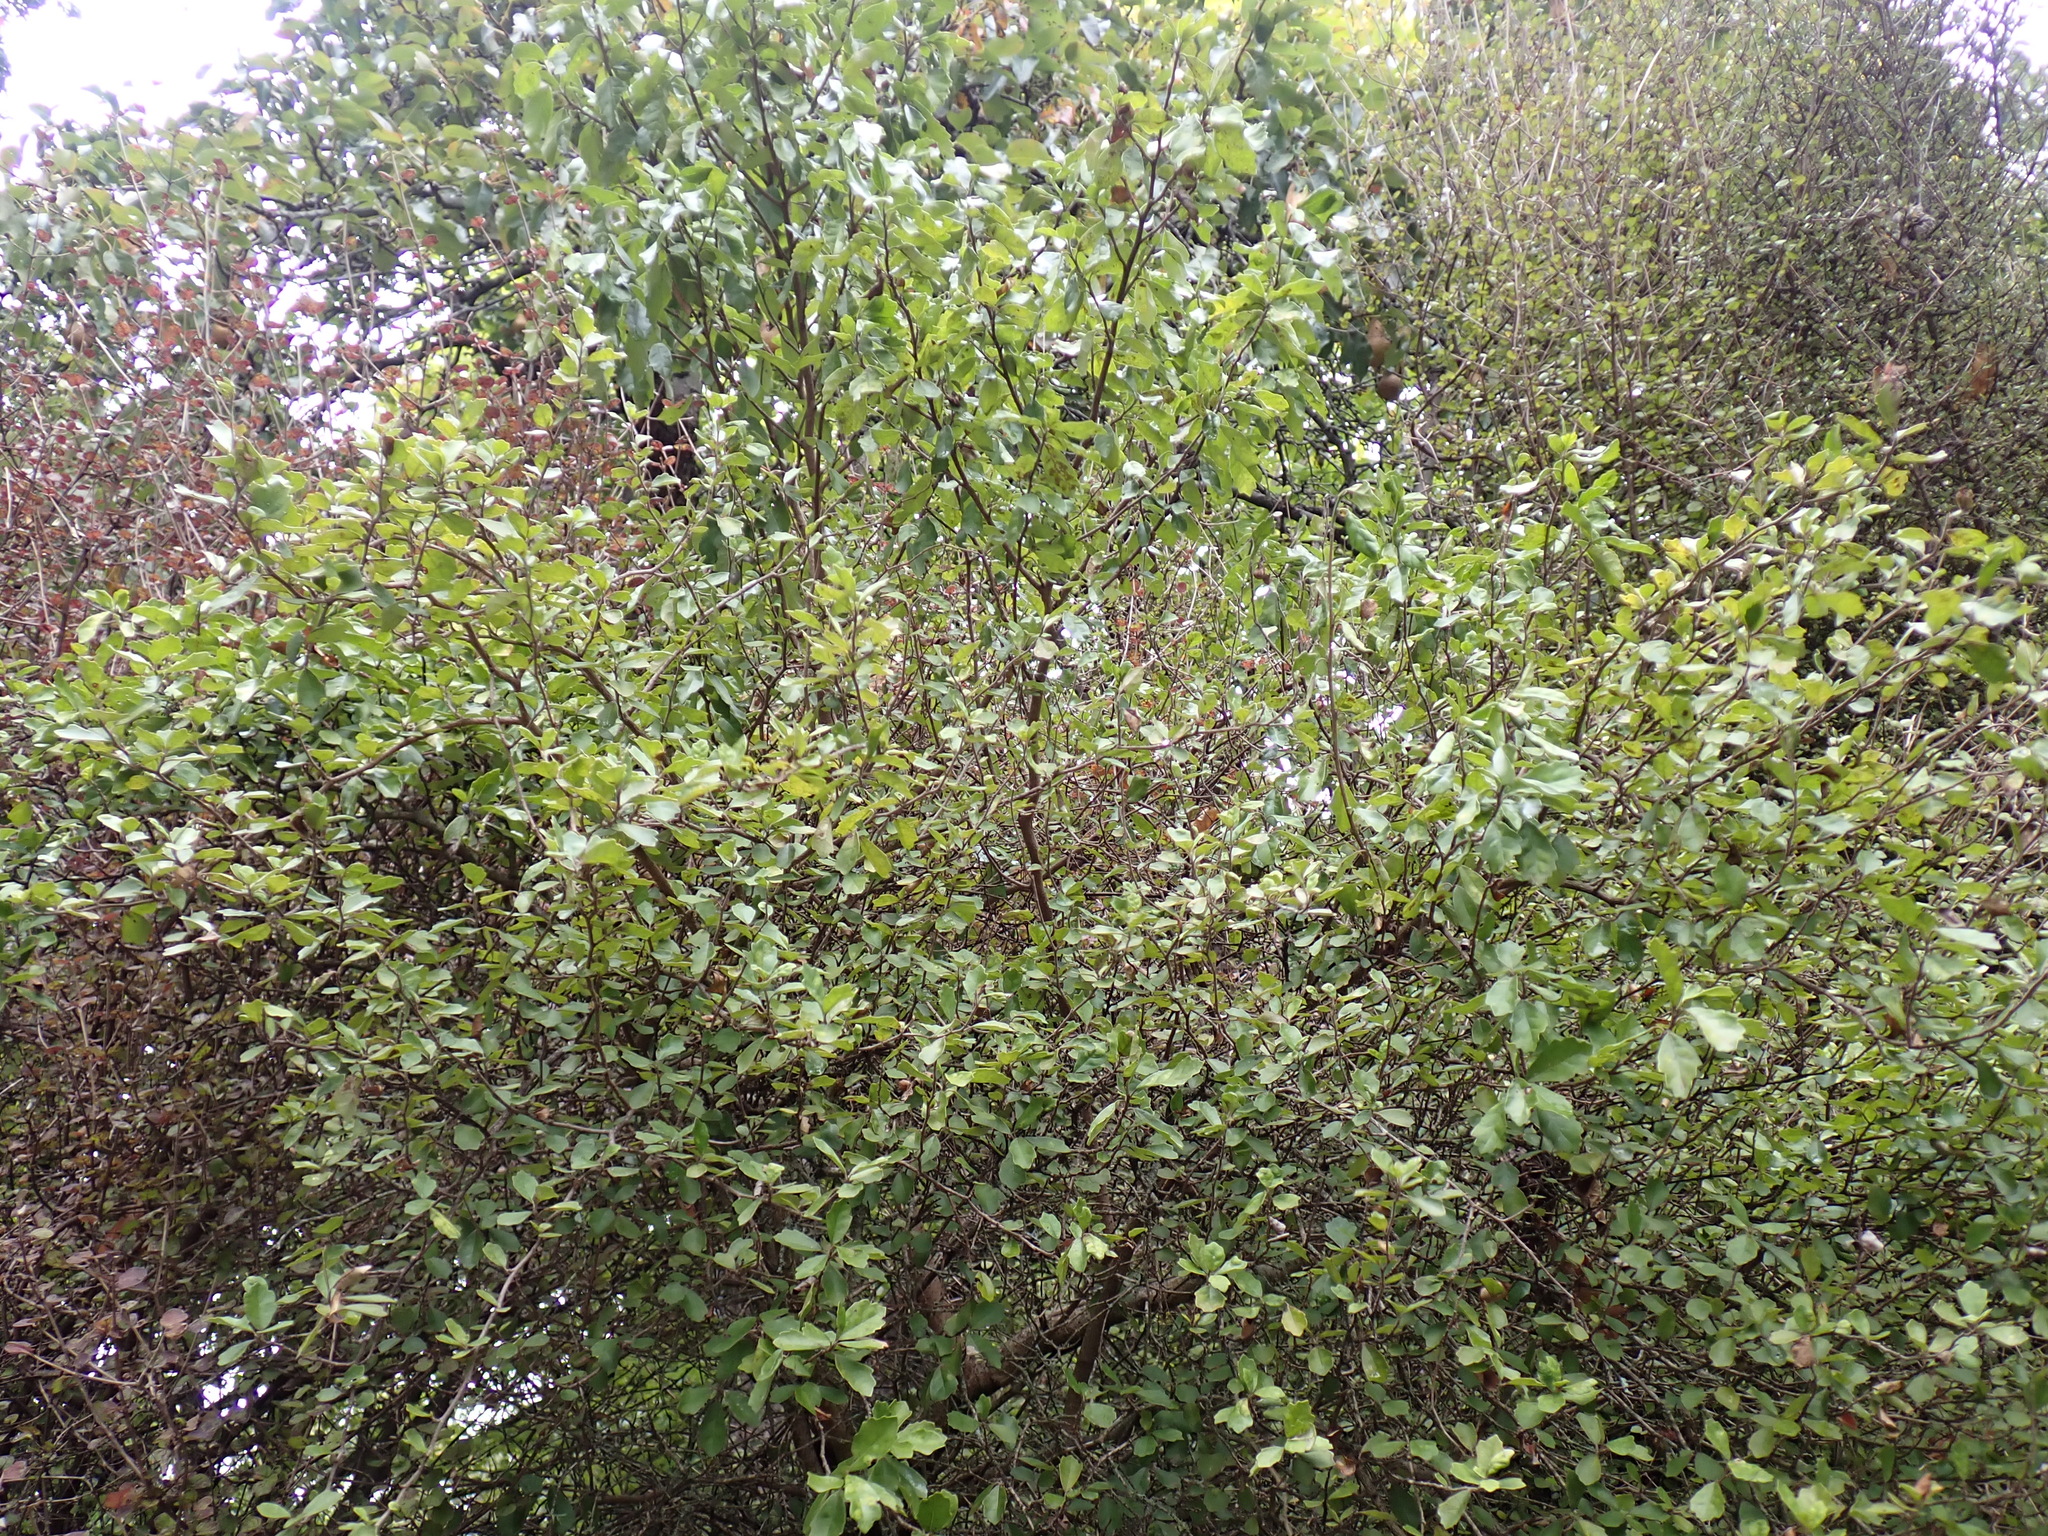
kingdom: Plantae
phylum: Tracheophyta
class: Magnoliopsida
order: Apiales
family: Pennantiaceae
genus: Pennantia
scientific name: Pennantia corymbosa
